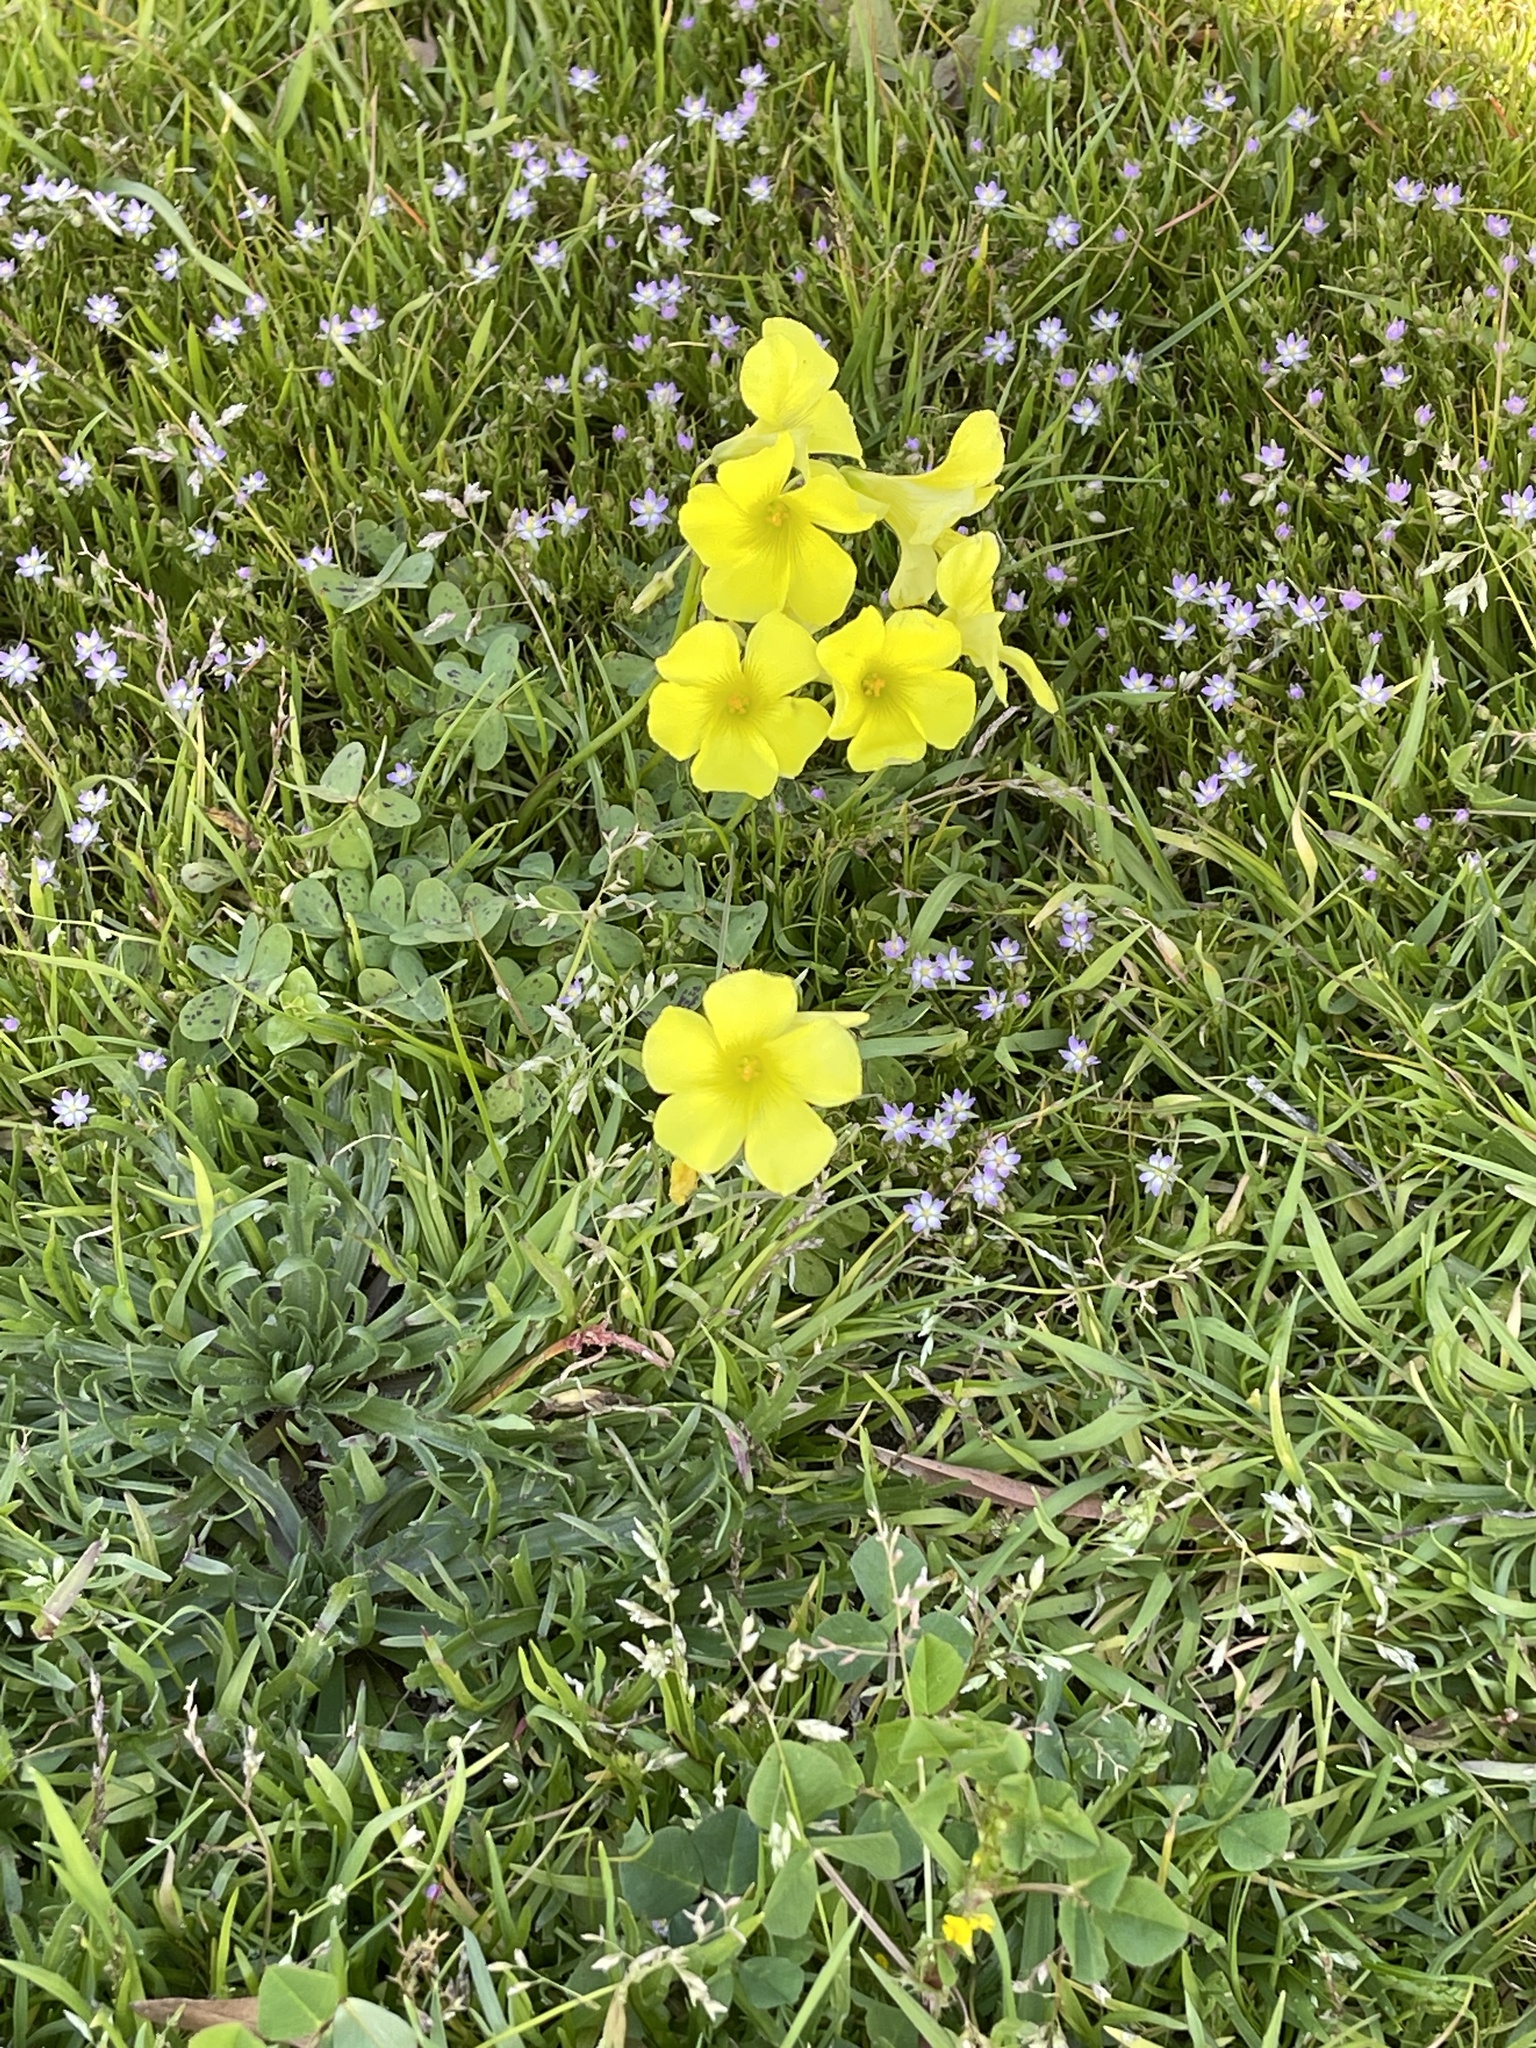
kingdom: Plantae
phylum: Tracheophyta
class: Magnoliopsida
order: Oxalidales
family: Oxalidaceae
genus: Oxalis
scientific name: Oxalis pes-caprae
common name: Bermuda-buttercup
